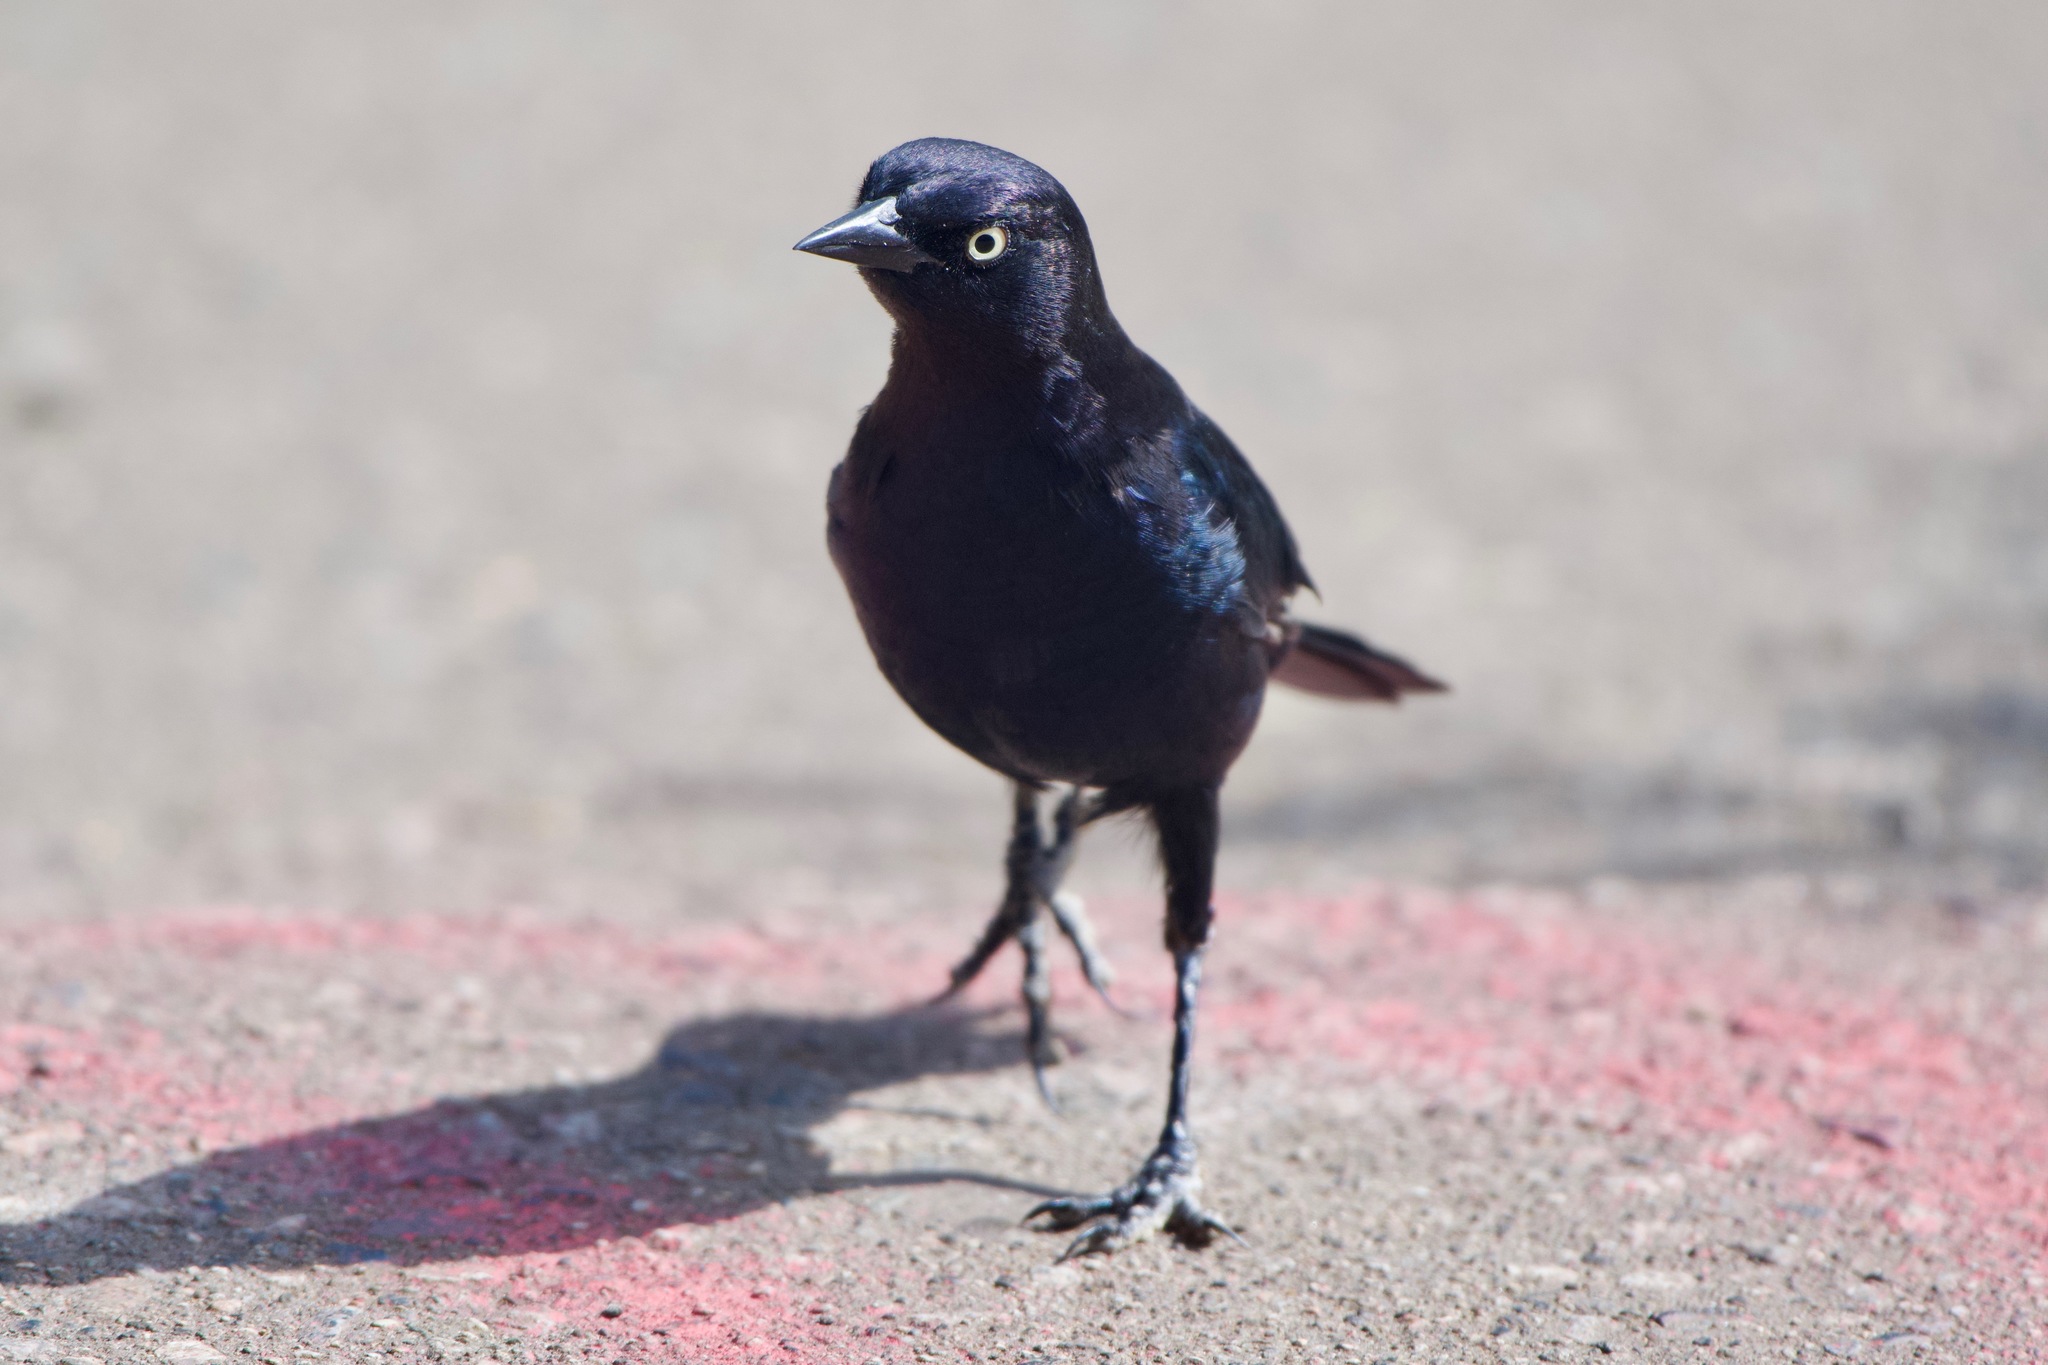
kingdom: Animalia
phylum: Chordata
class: Aves
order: Passeriformes
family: Icteridae
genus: Euphagus
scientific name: Euphagus cyanocephalus
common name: Brewer's blackbird
